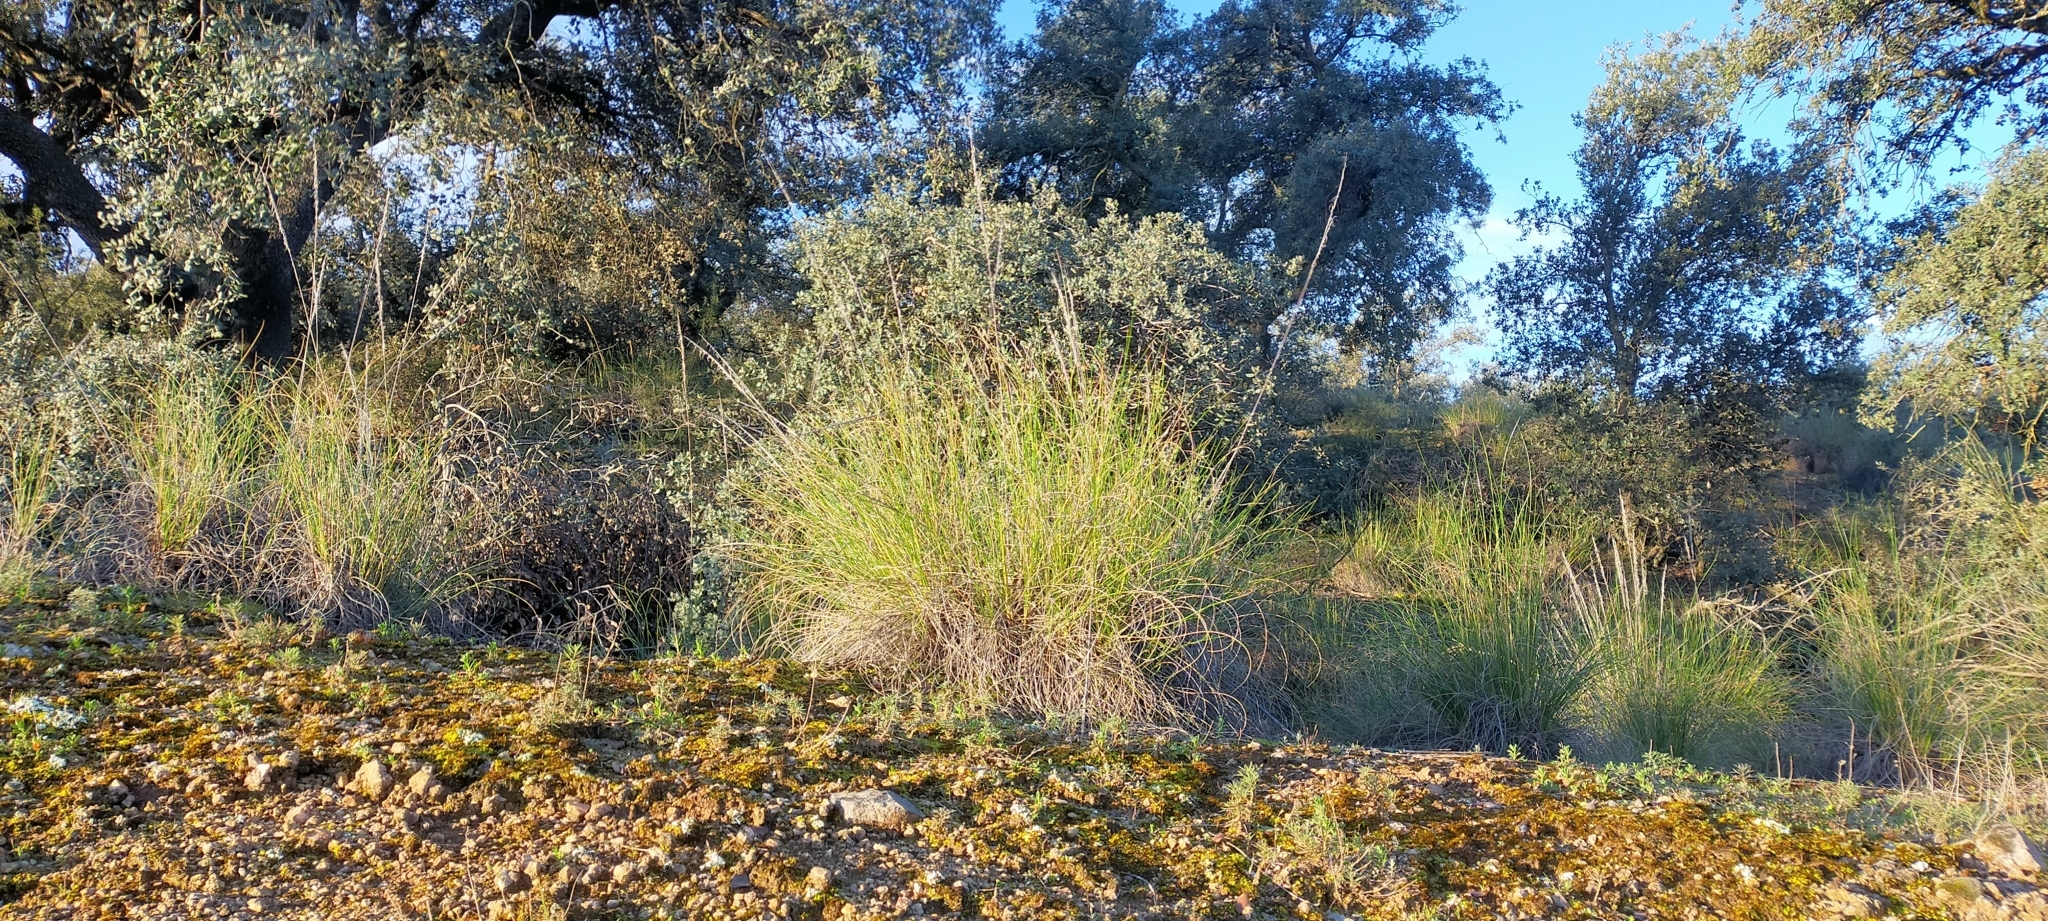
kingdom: Plantae
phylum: Tracheophyta
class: Liliopsida
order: Poales
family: Poaceae
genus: Macrochloa
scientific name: Macrochloa tenacissima
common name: Alfa grass
